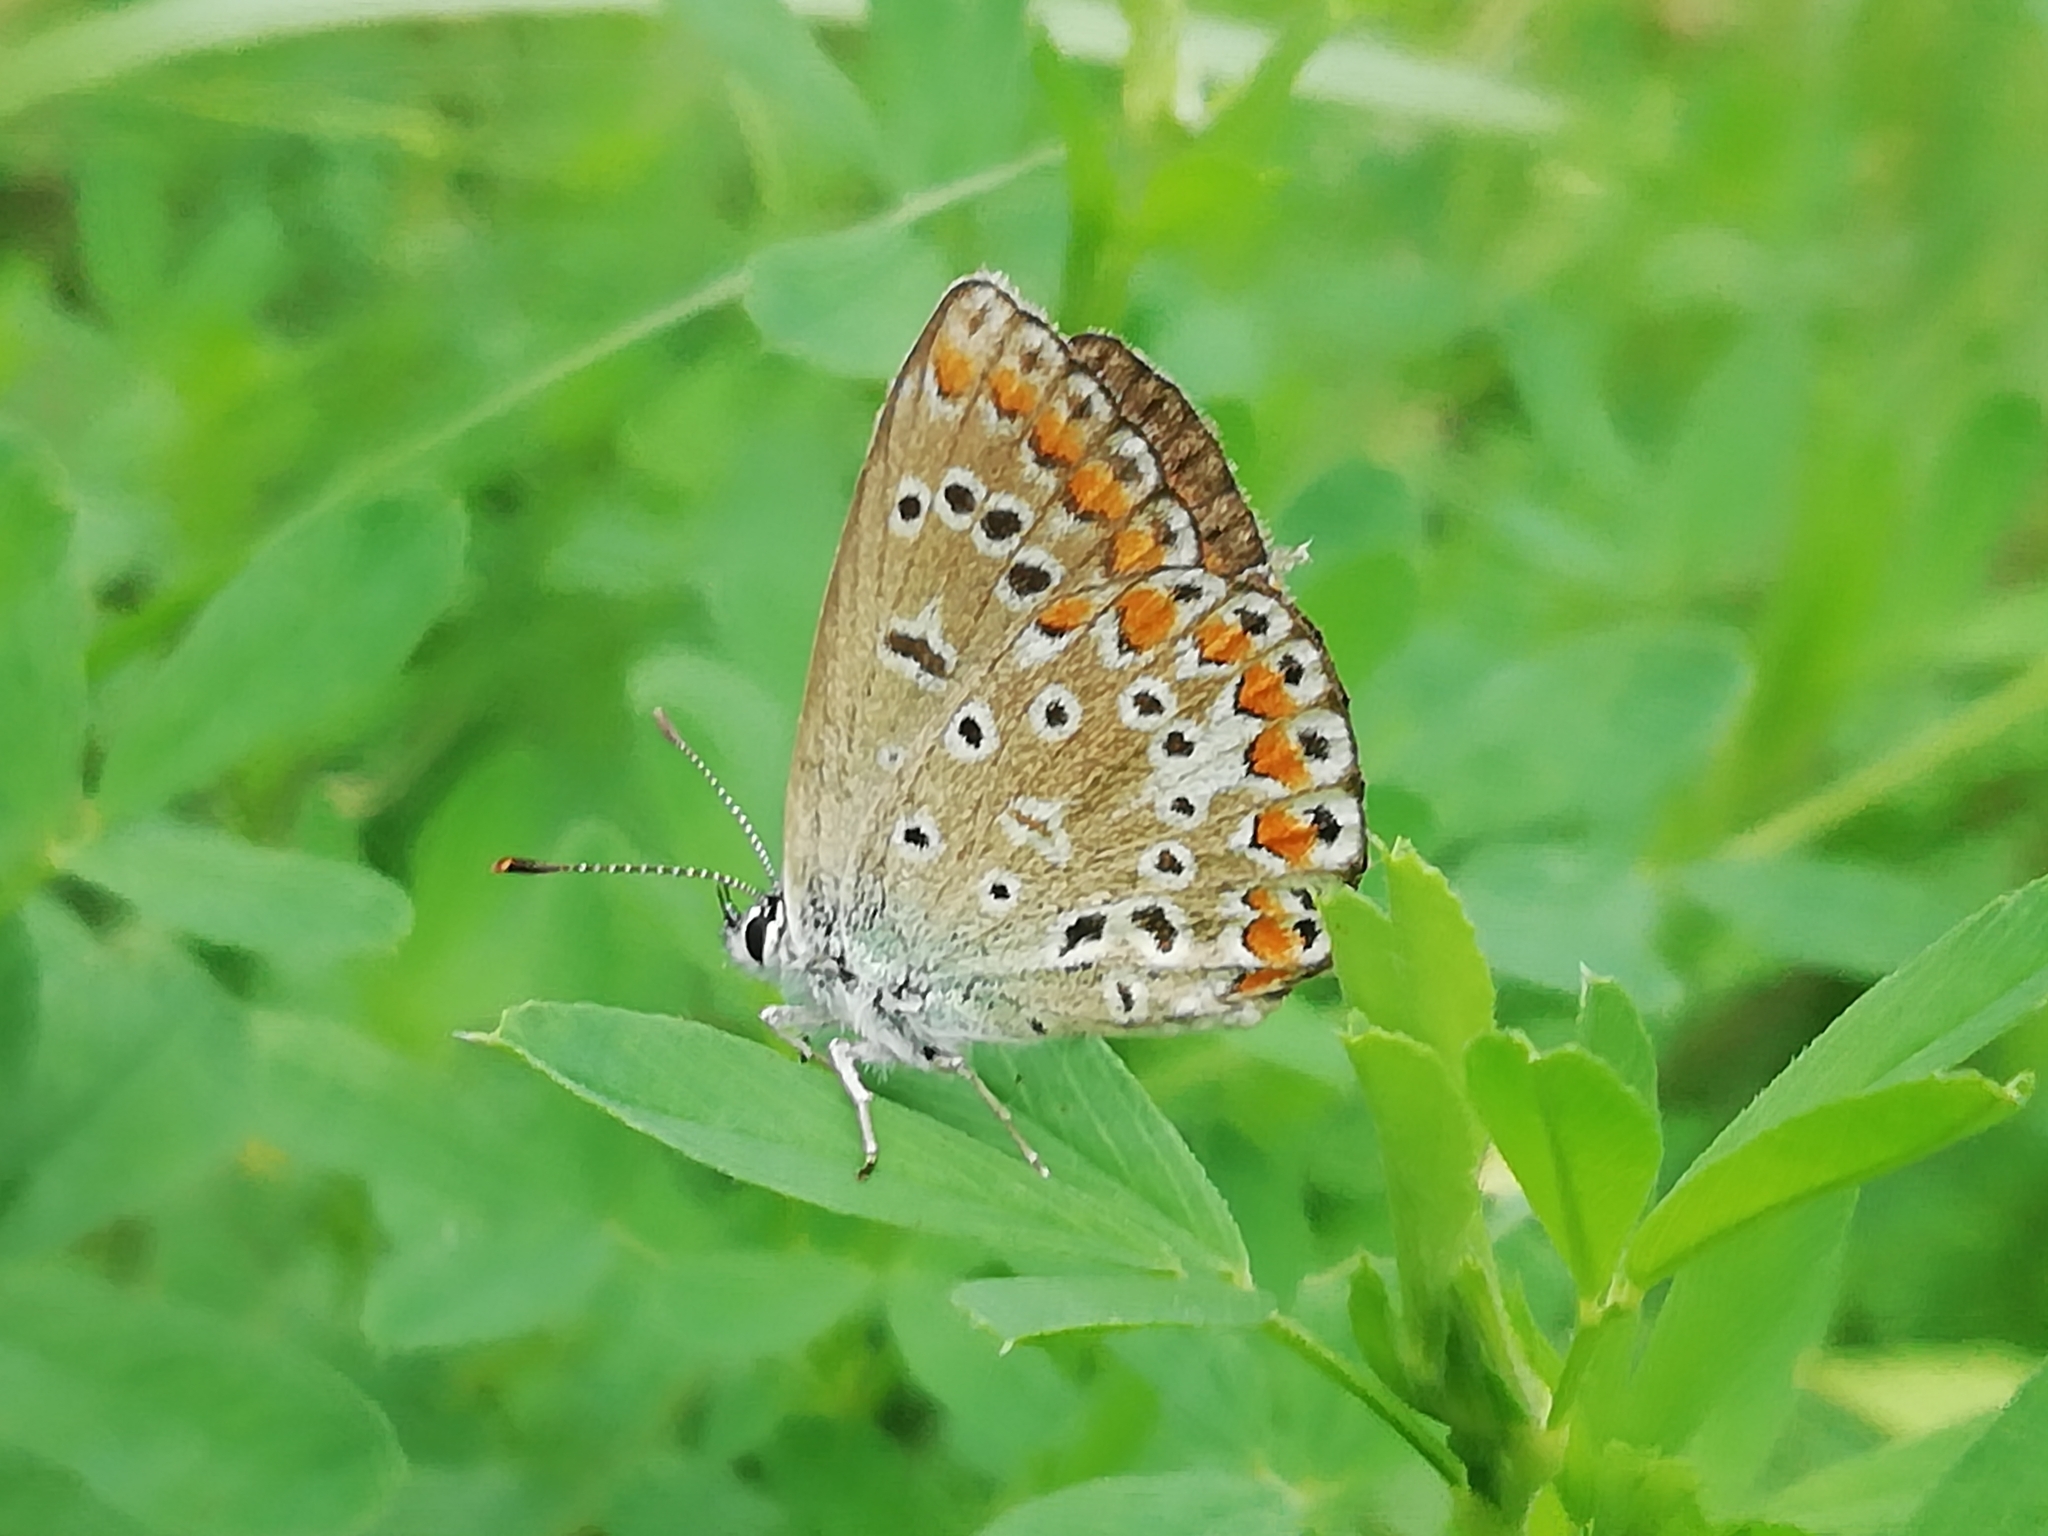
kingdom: Animalia
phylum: Arthropoda
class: Insecta
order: Lepidoptera
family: Lycaenidae
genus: Polyommatus
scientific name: Polyommatus icarus
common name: Common blue
